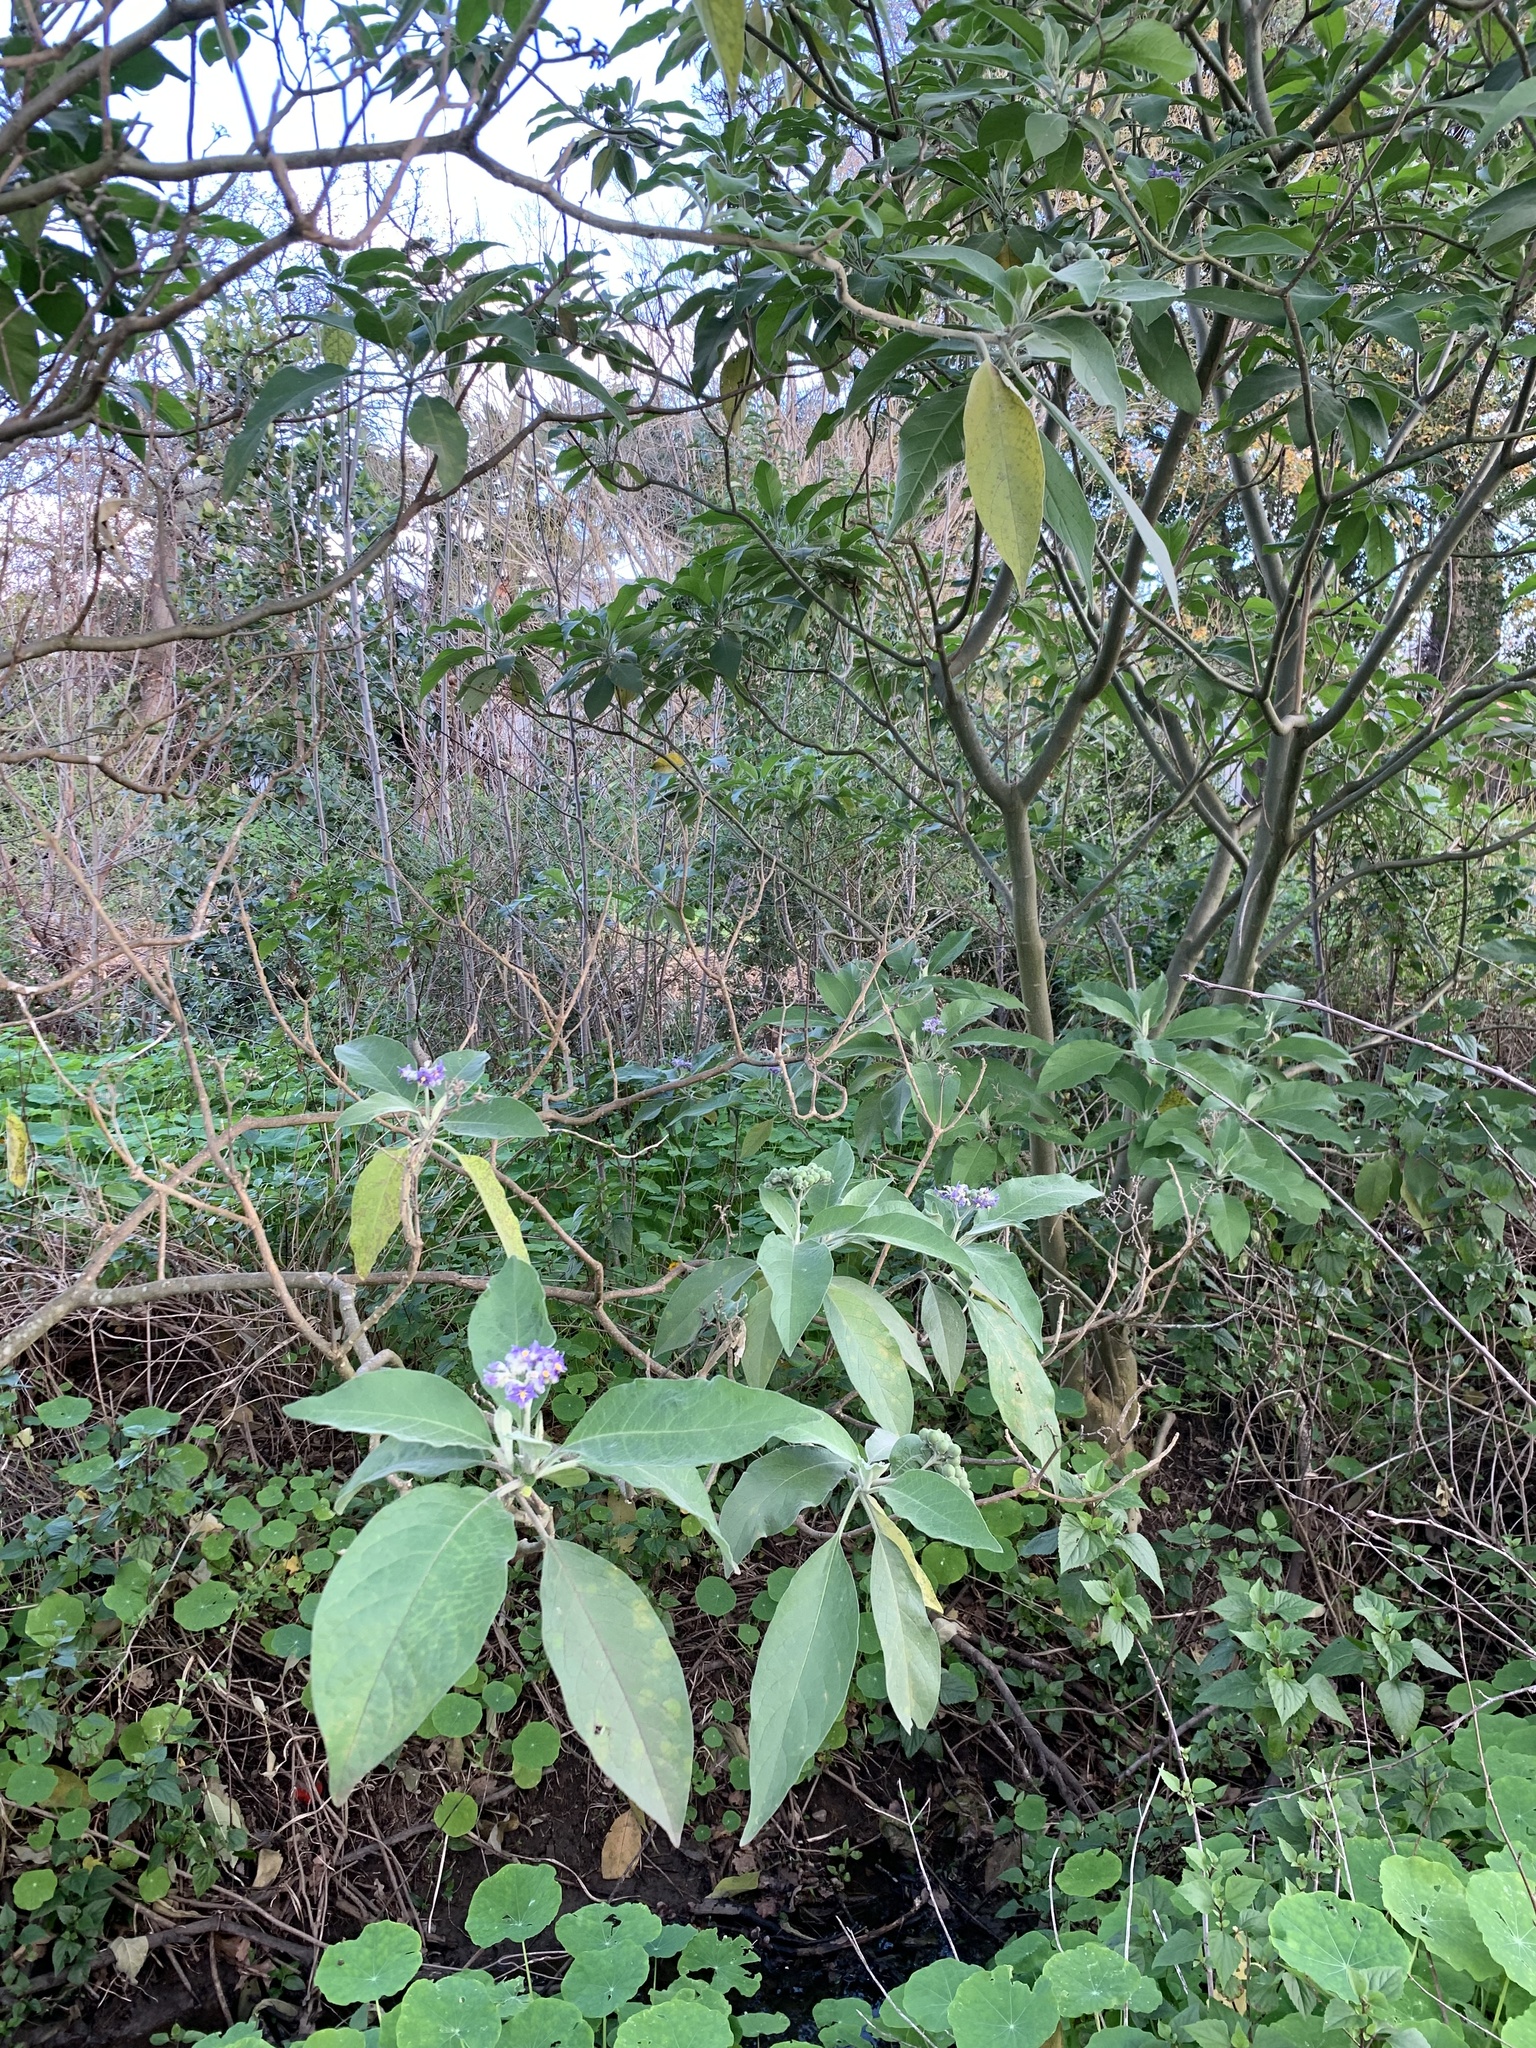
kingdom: Plantae
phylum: Tracheophyta
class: Magnoliopsida
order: Solanales
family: Solanaceae
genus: Solanum
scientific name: Solanum mauritianum
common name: Earleaf nightshade
